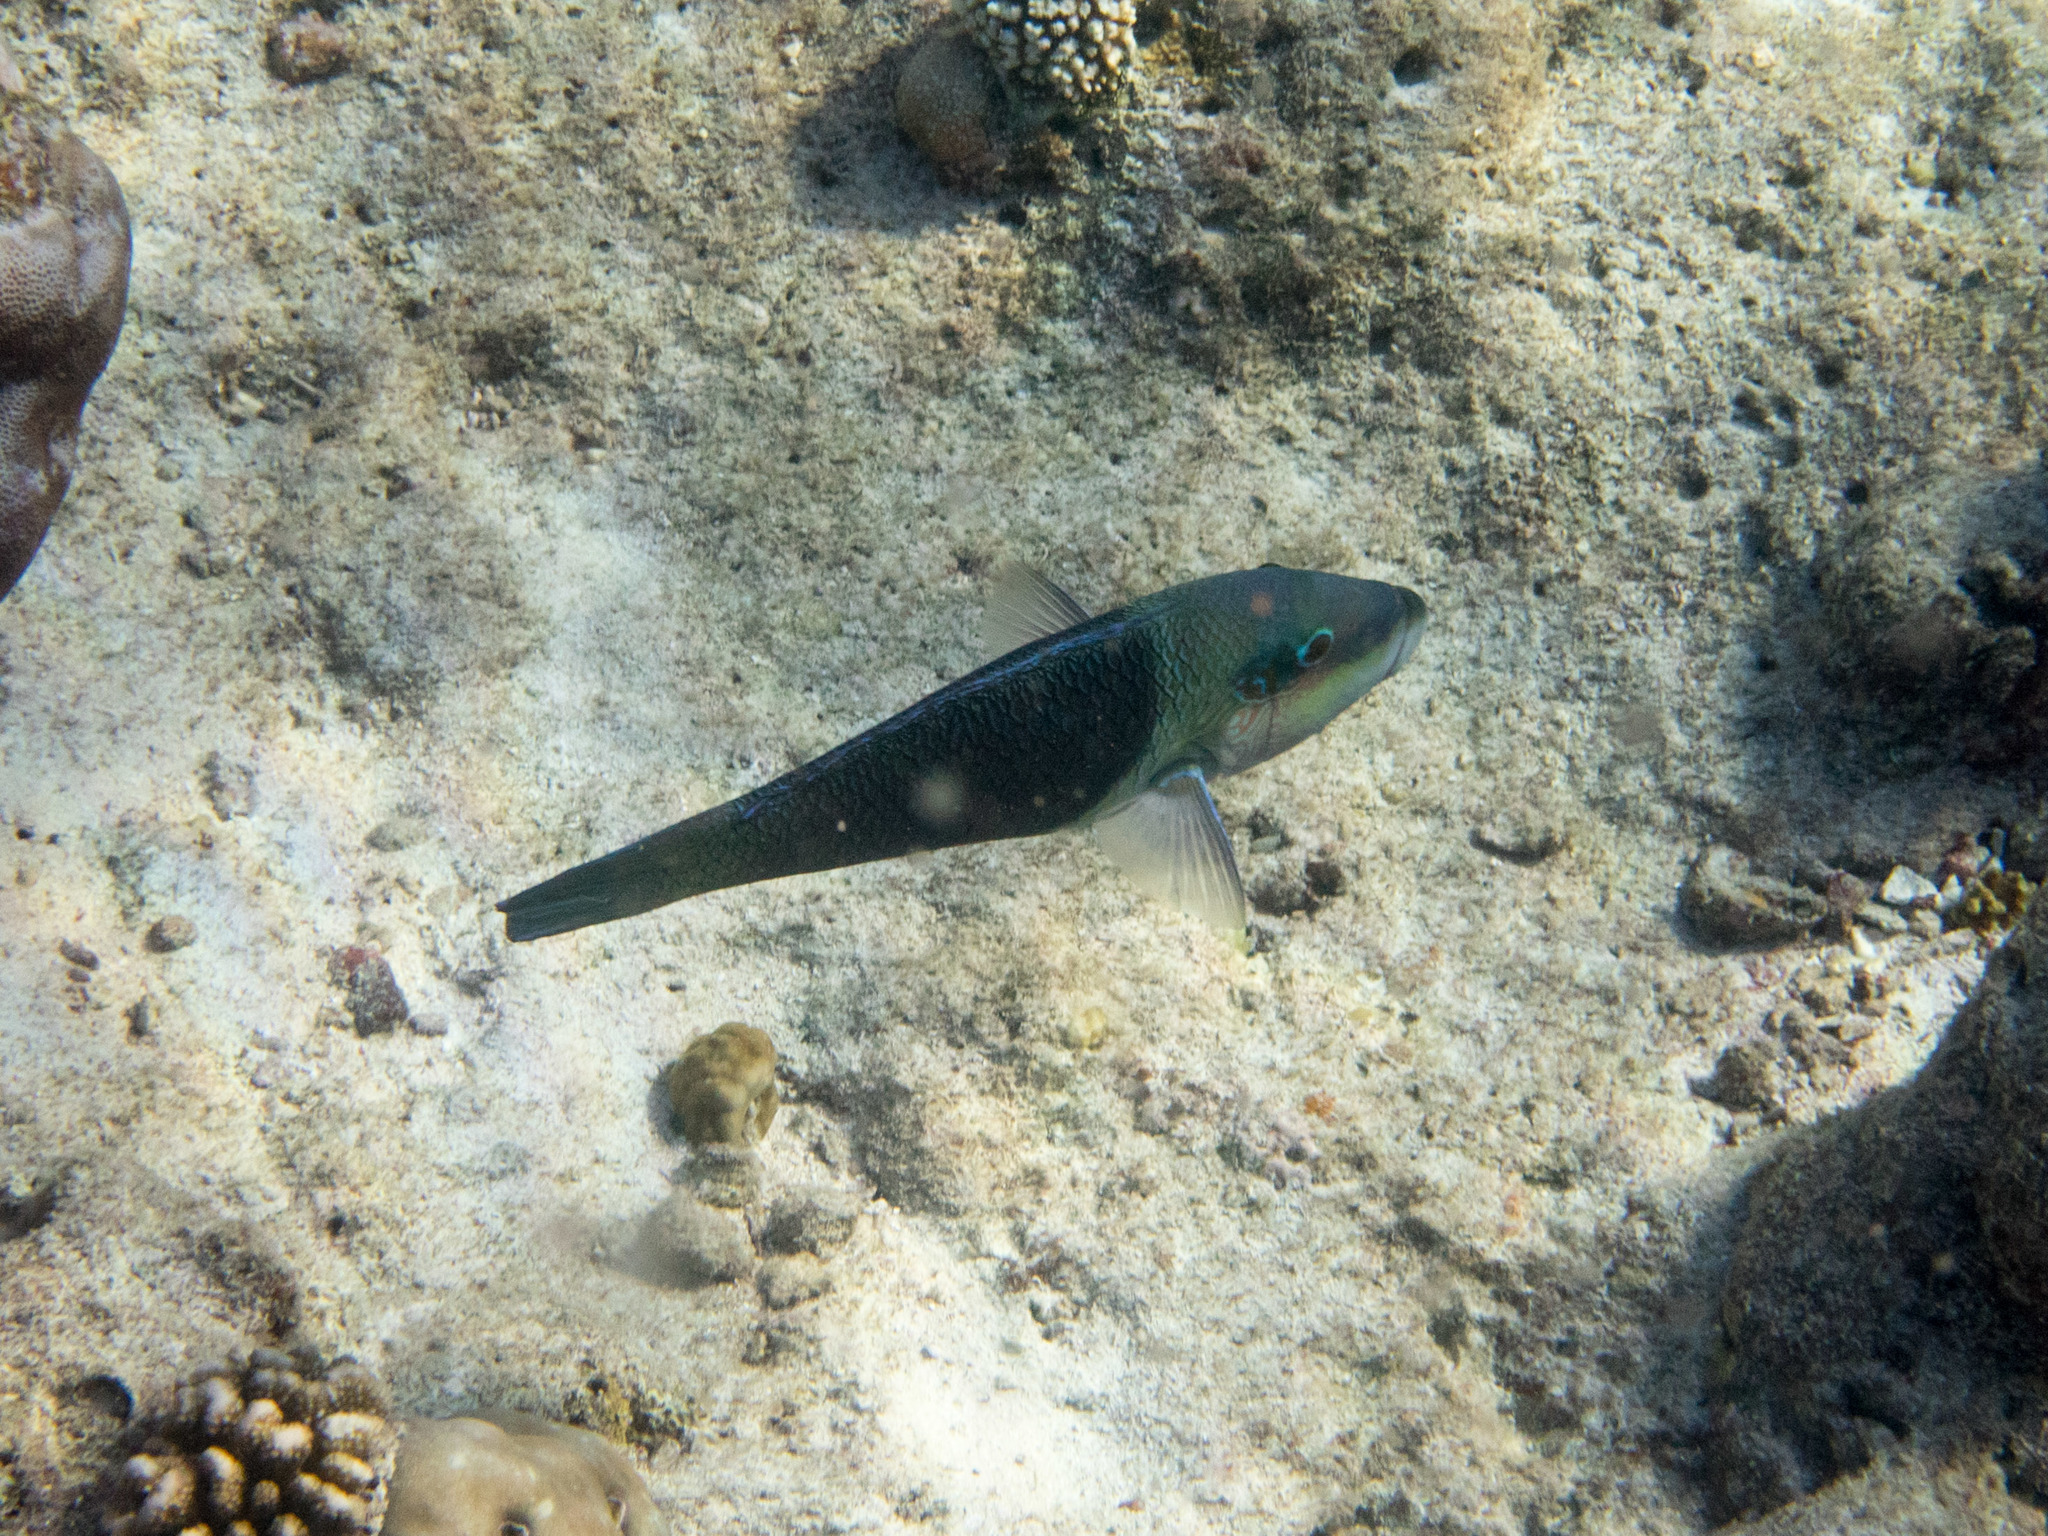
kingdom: Animalia
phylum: Chordata
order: Perciformes
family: Labridae
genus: Hemigymnus
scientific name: Hemigymnus melapterus
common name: Blackeye thicklip
